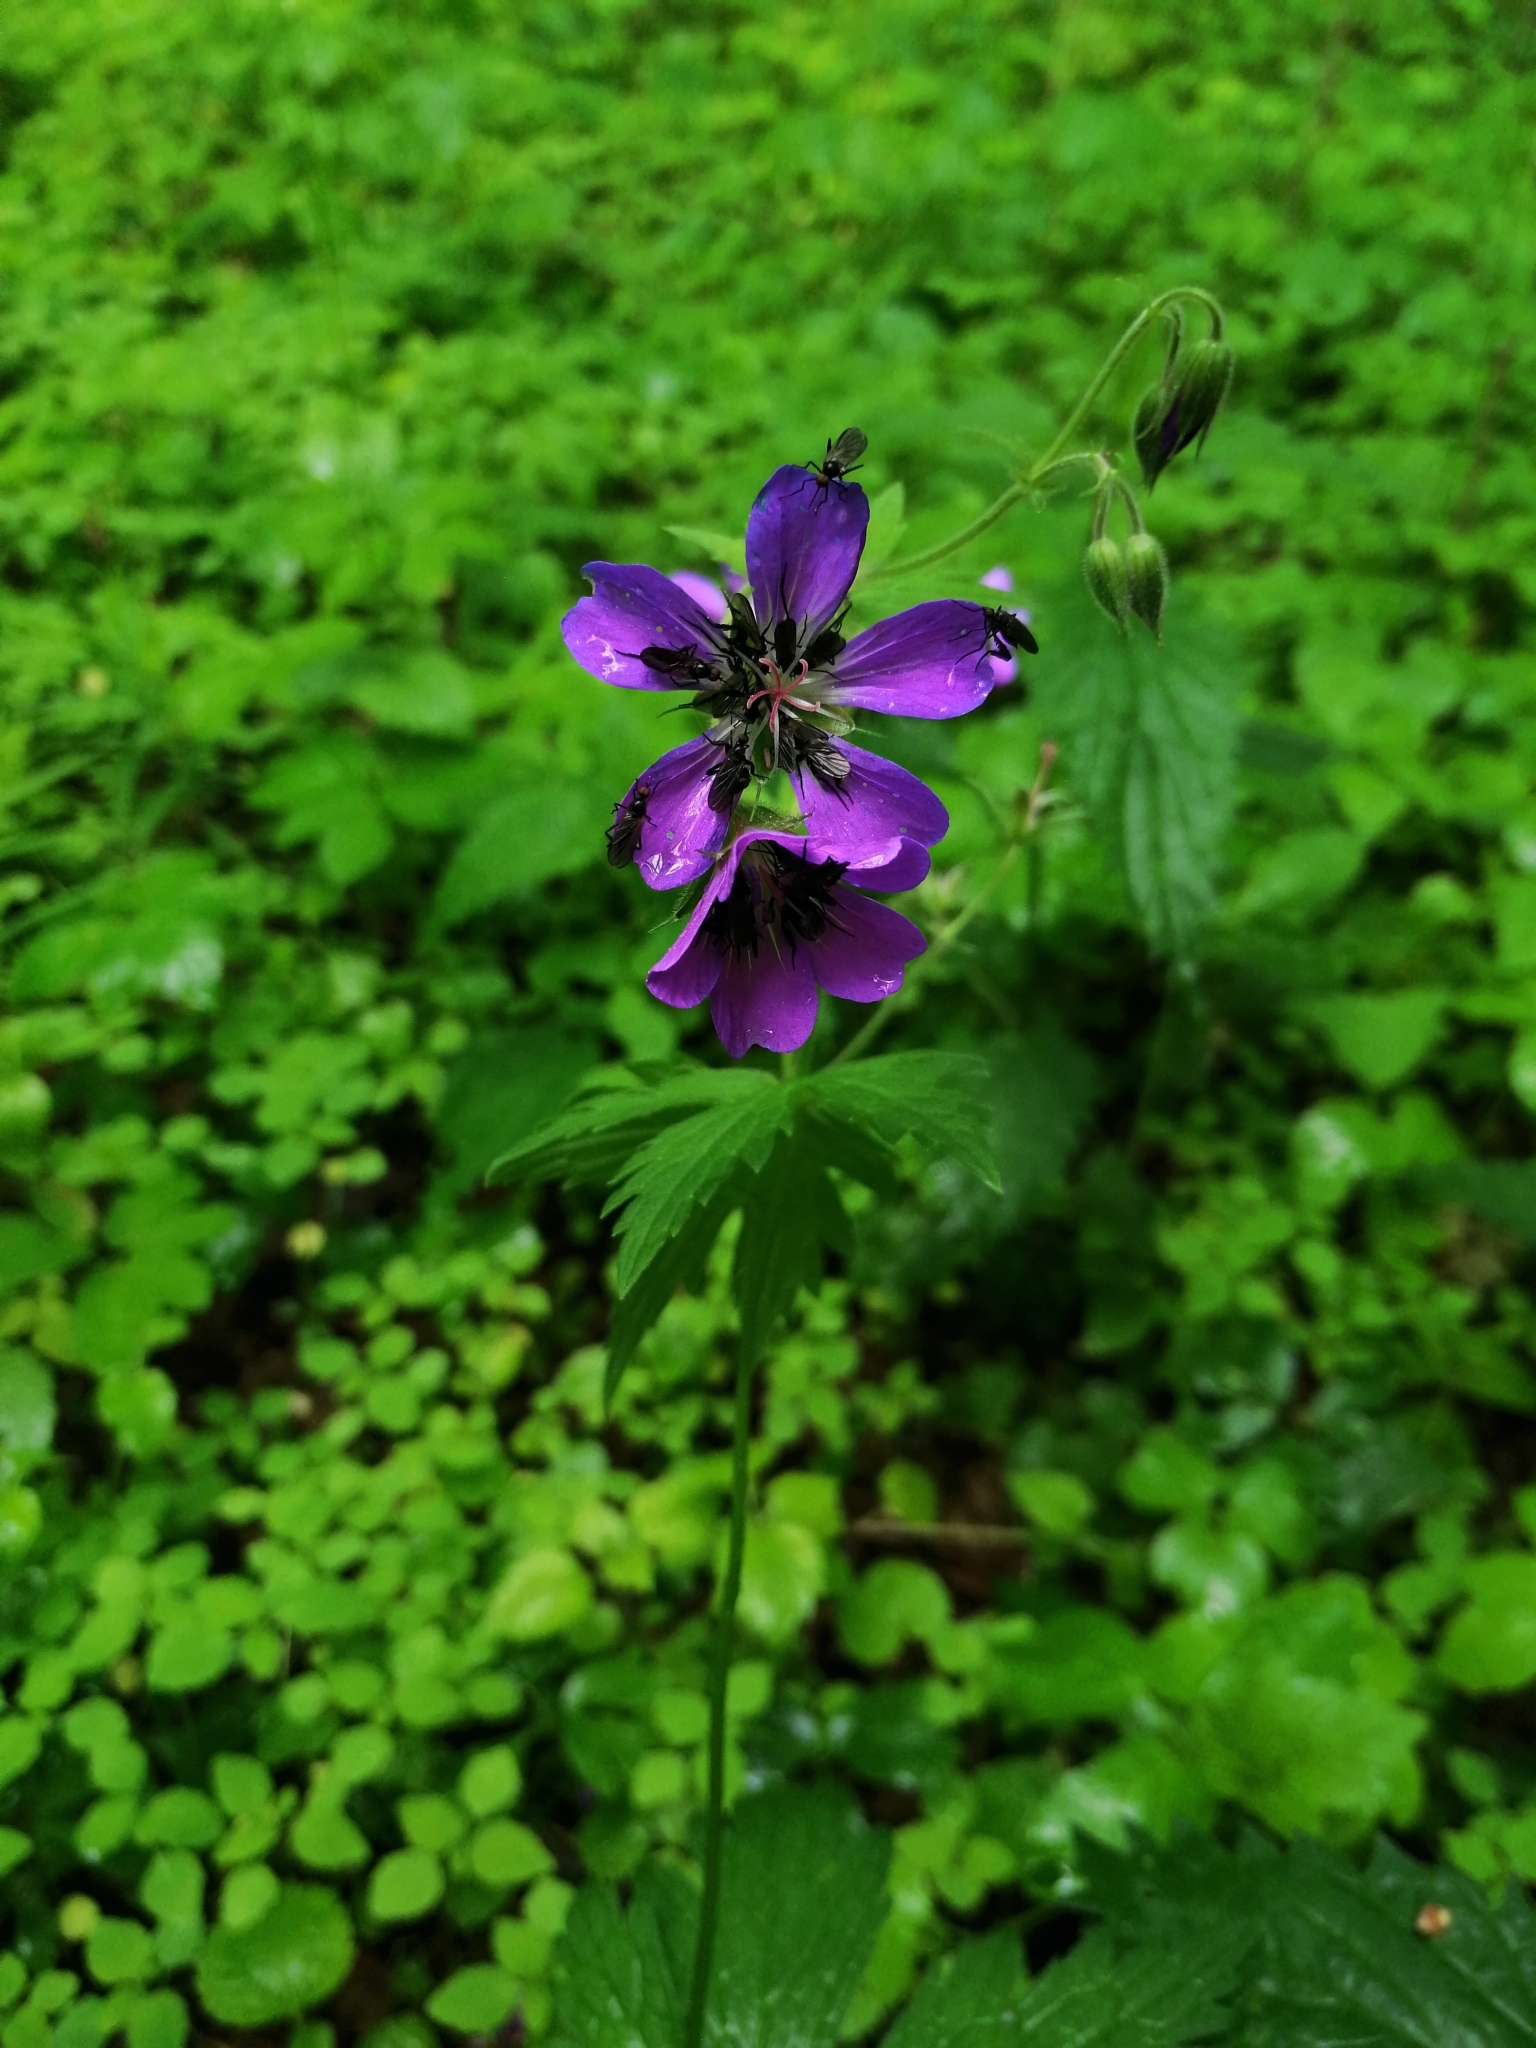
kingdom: Plantae
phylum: Tracheophyta
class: Magnoliopsida
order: Geraniales
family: Geraniaceae
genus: Geranium
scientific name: Geranium sylvaticum
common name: Wood crane's-bill
